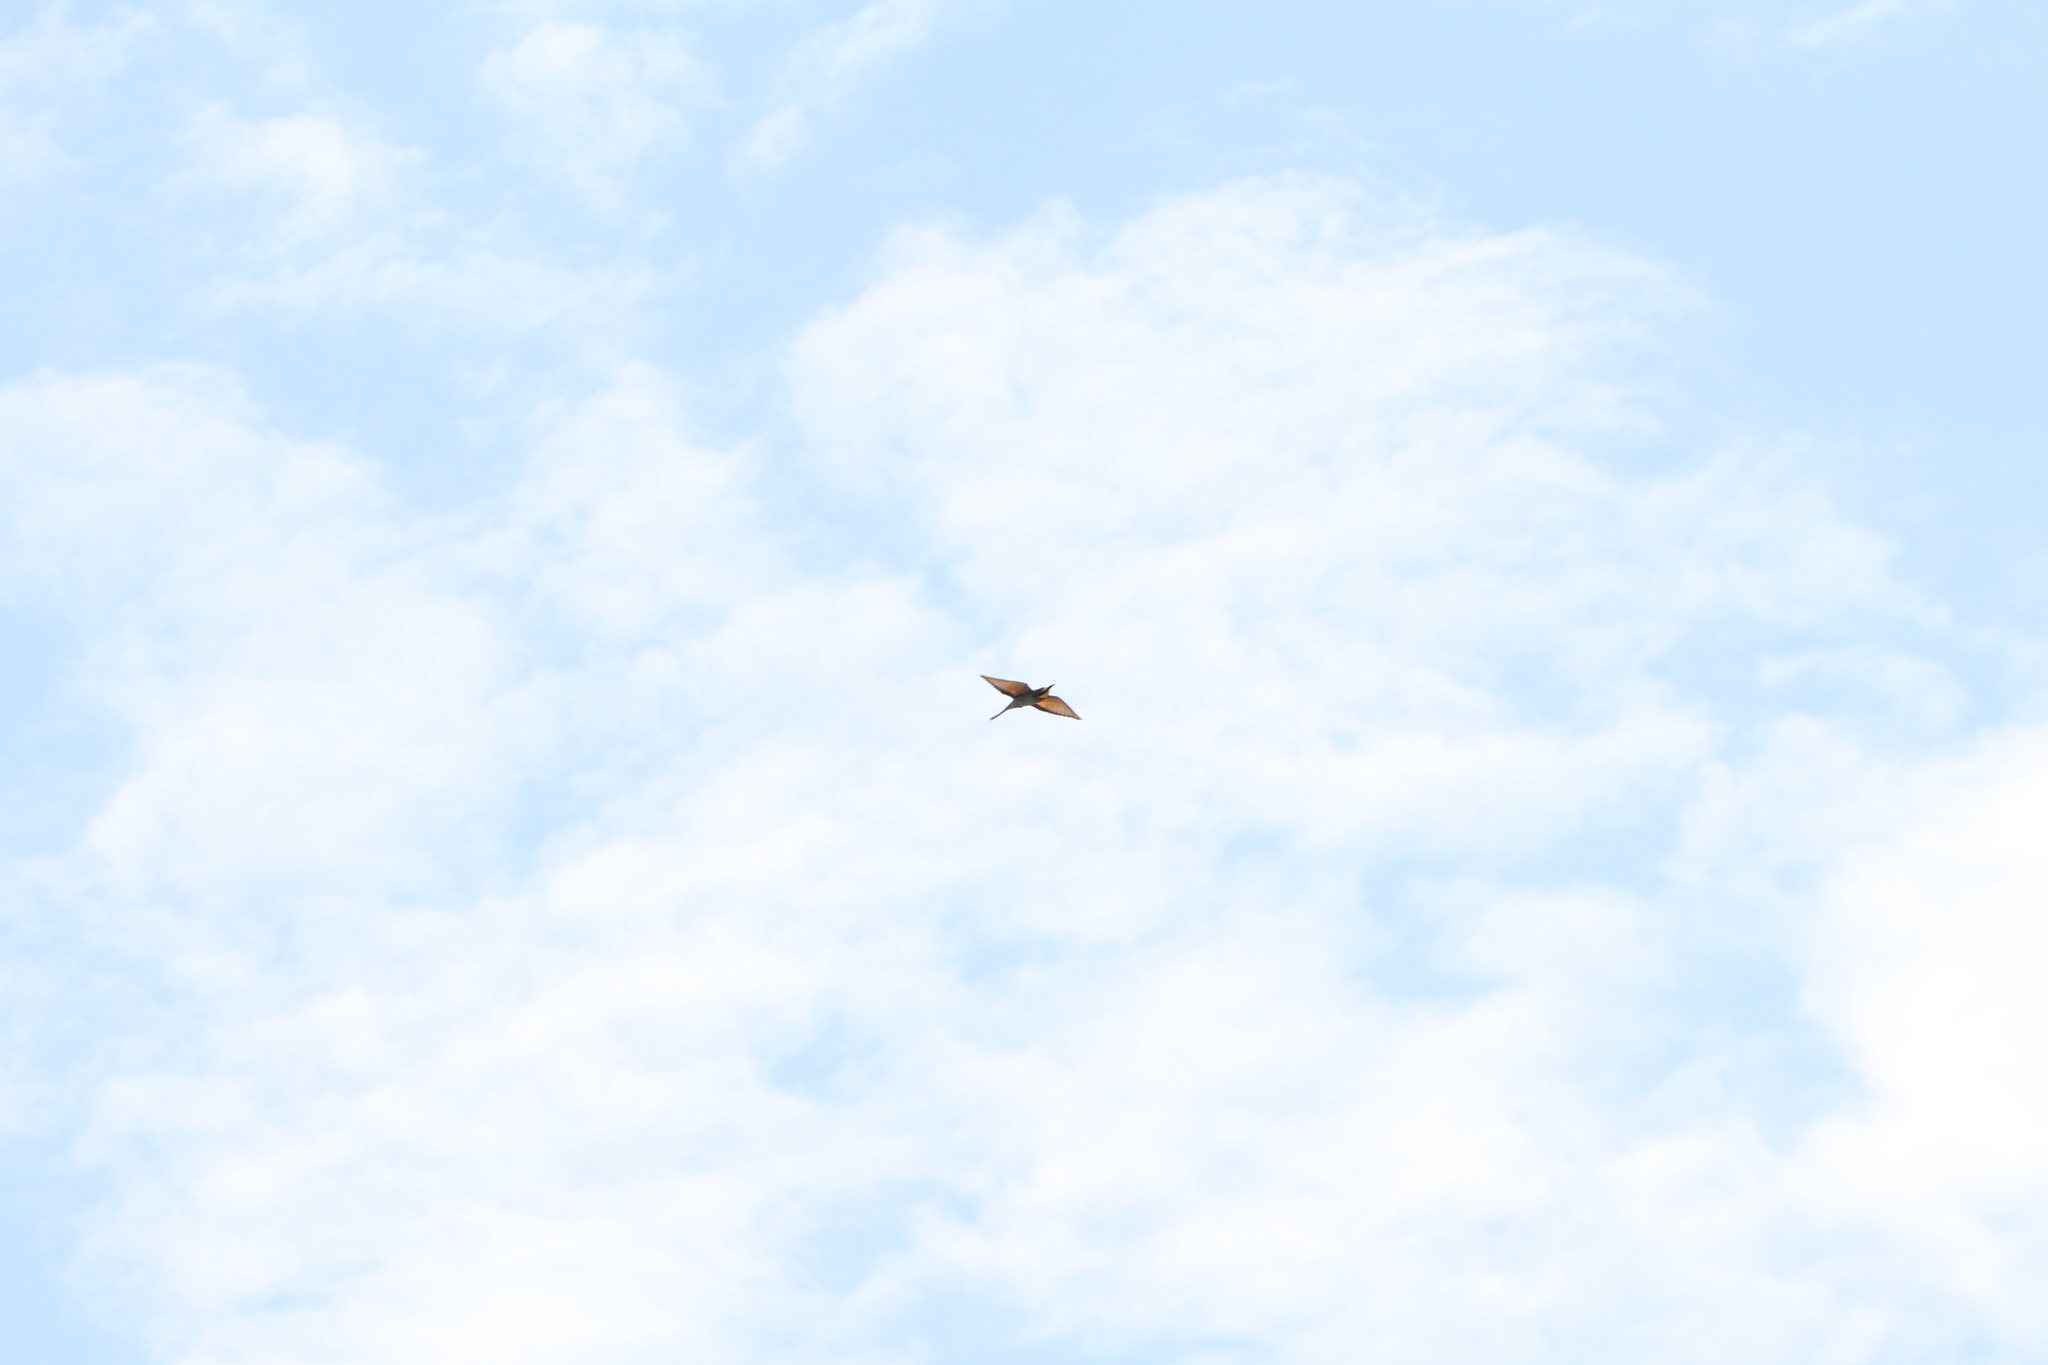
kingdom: Animalia
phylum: Chordata
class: Aves
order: Coraciiformes
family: Meropidae
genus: Merops
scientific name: Merops apiaster
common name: European bee-eater
